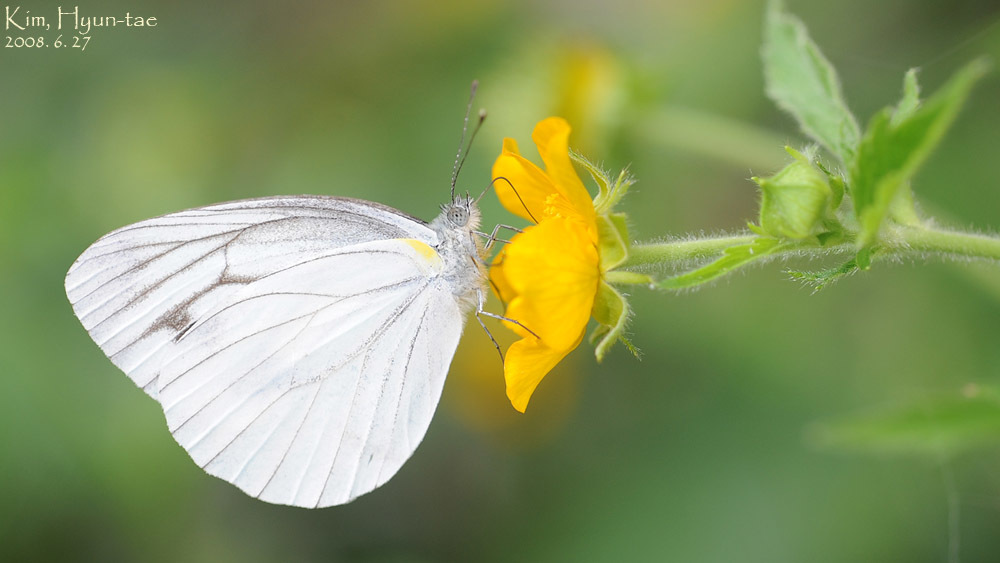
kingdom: Animalia
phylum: Arthropoda
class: Insecta
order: Lepidoptera
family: Pieridae
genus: Pieris
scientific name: Pieris melete
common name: Asian green-veined white
